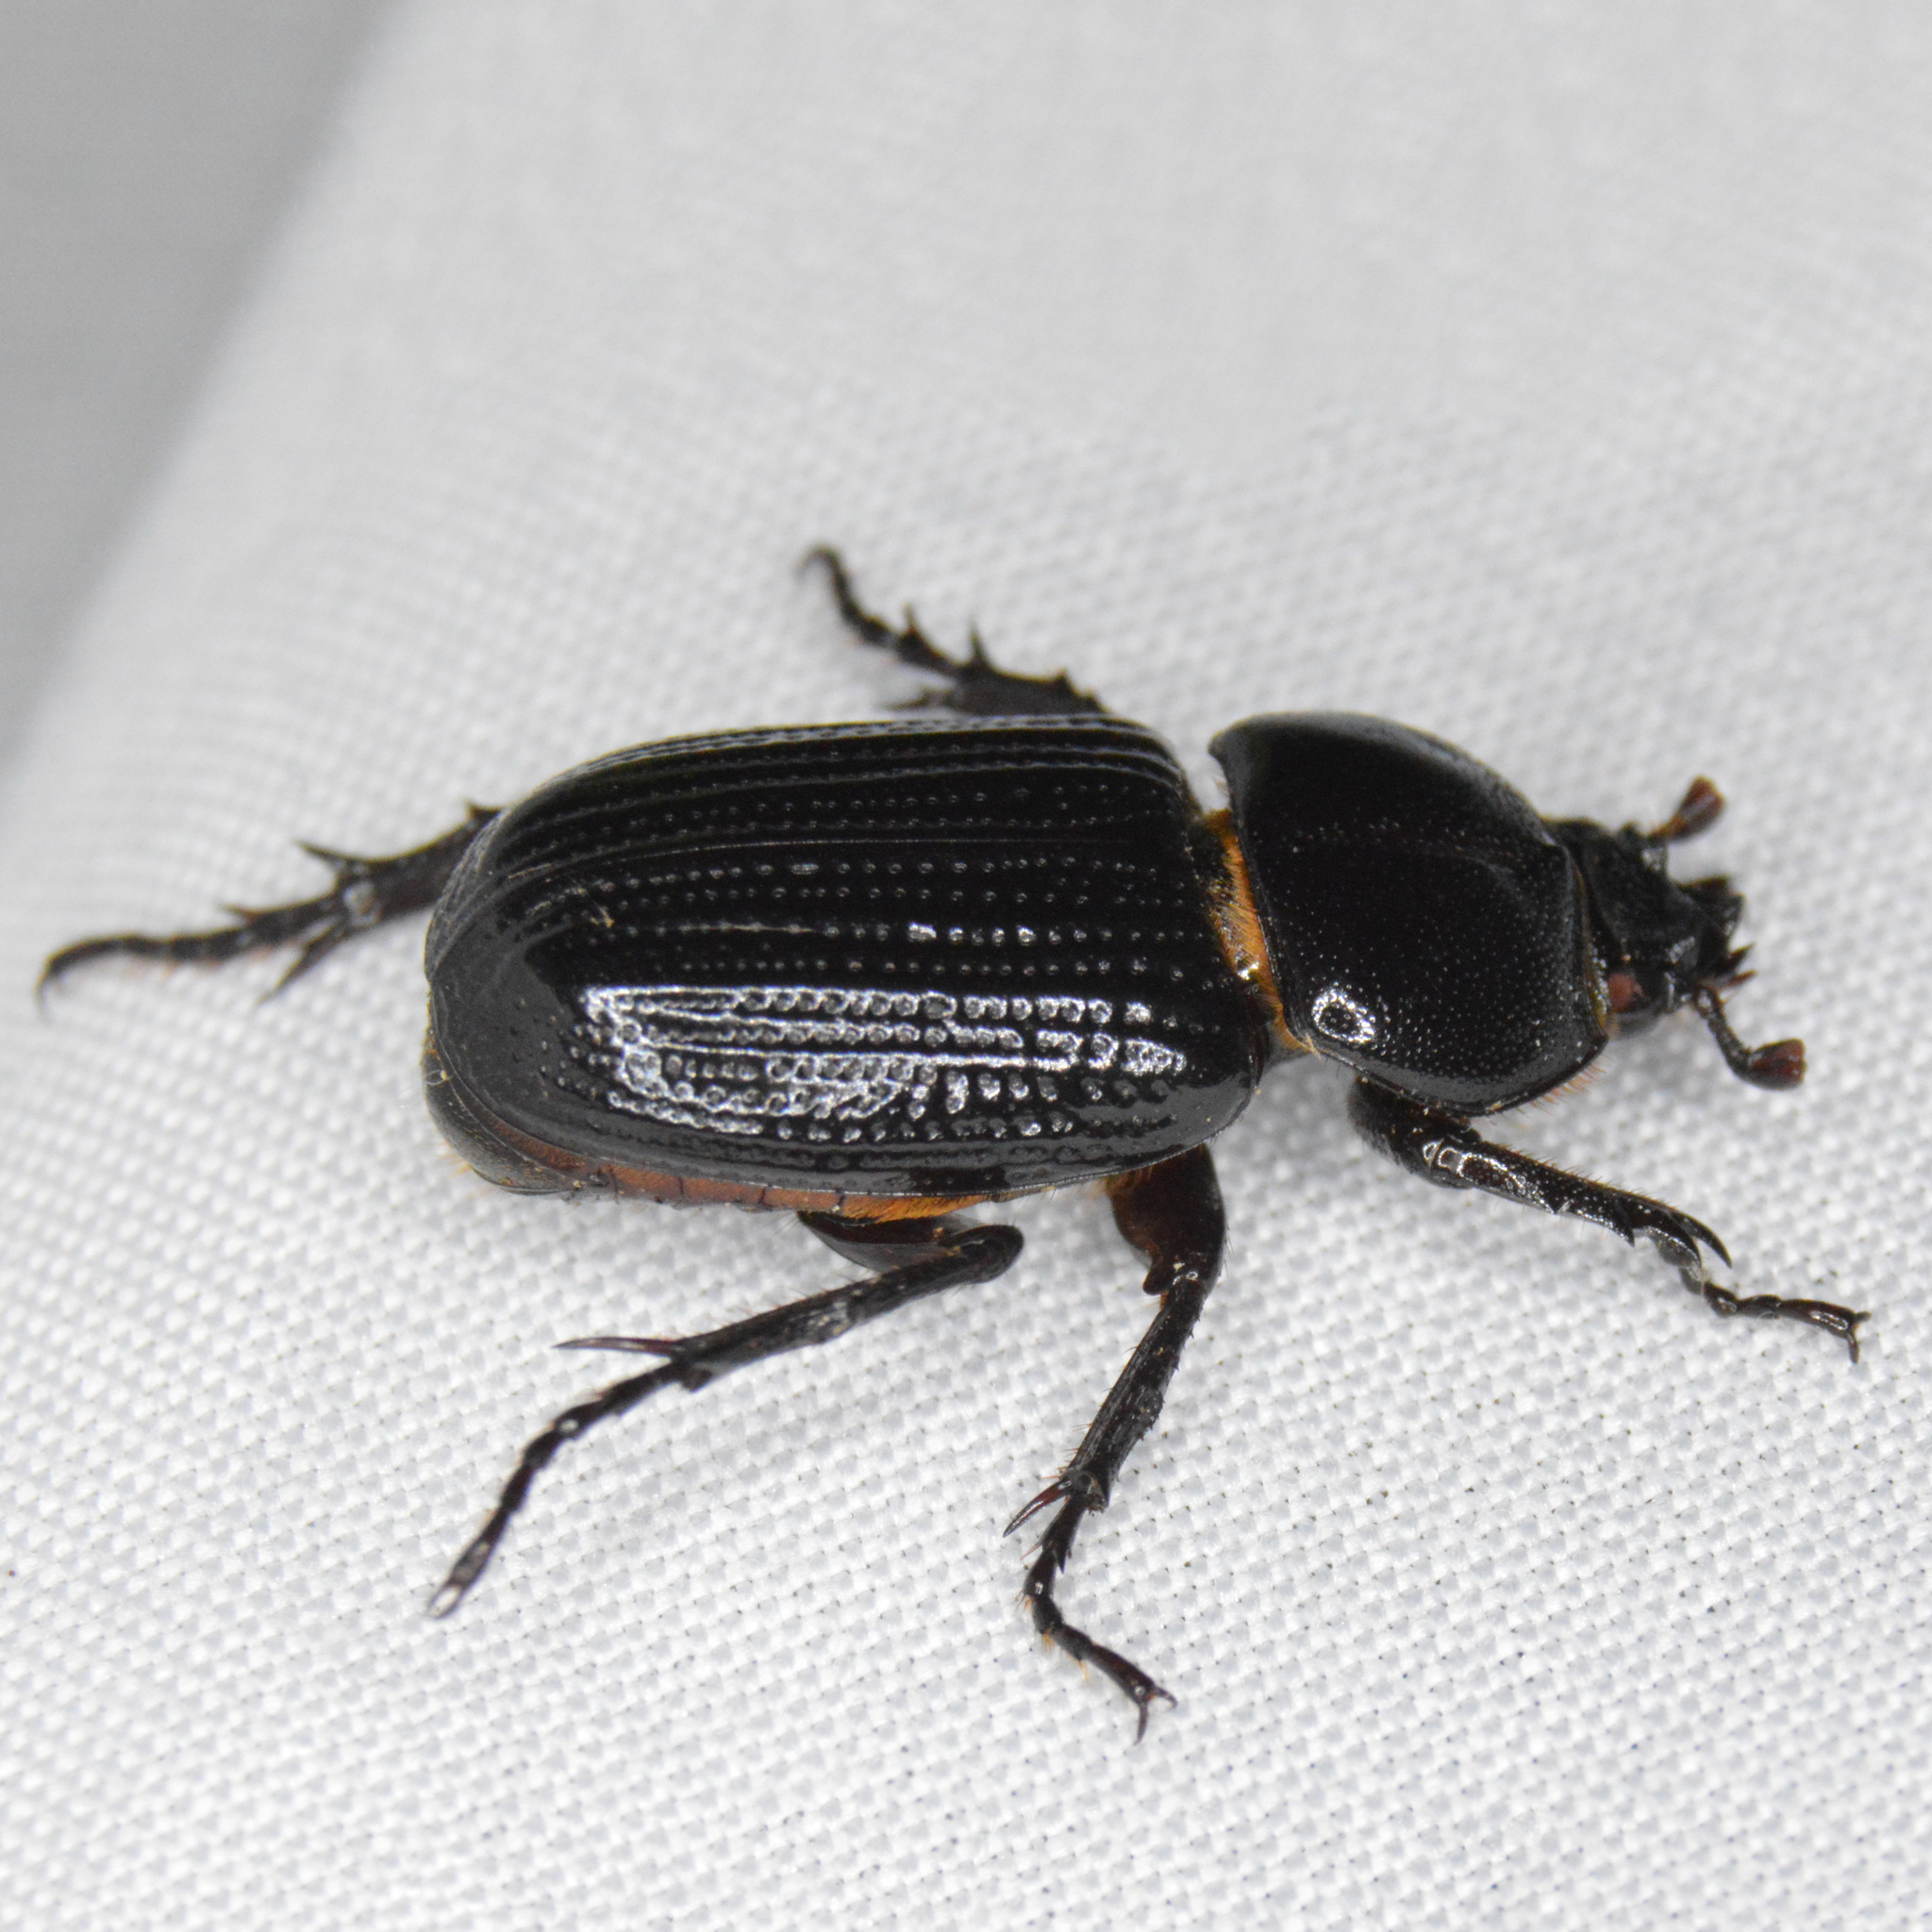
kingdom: Animalia
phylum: Arthropoda
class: Insecta
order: Coleoptera
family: Scarabaeidae
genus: Phileurus
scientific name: Phileurus valgus
